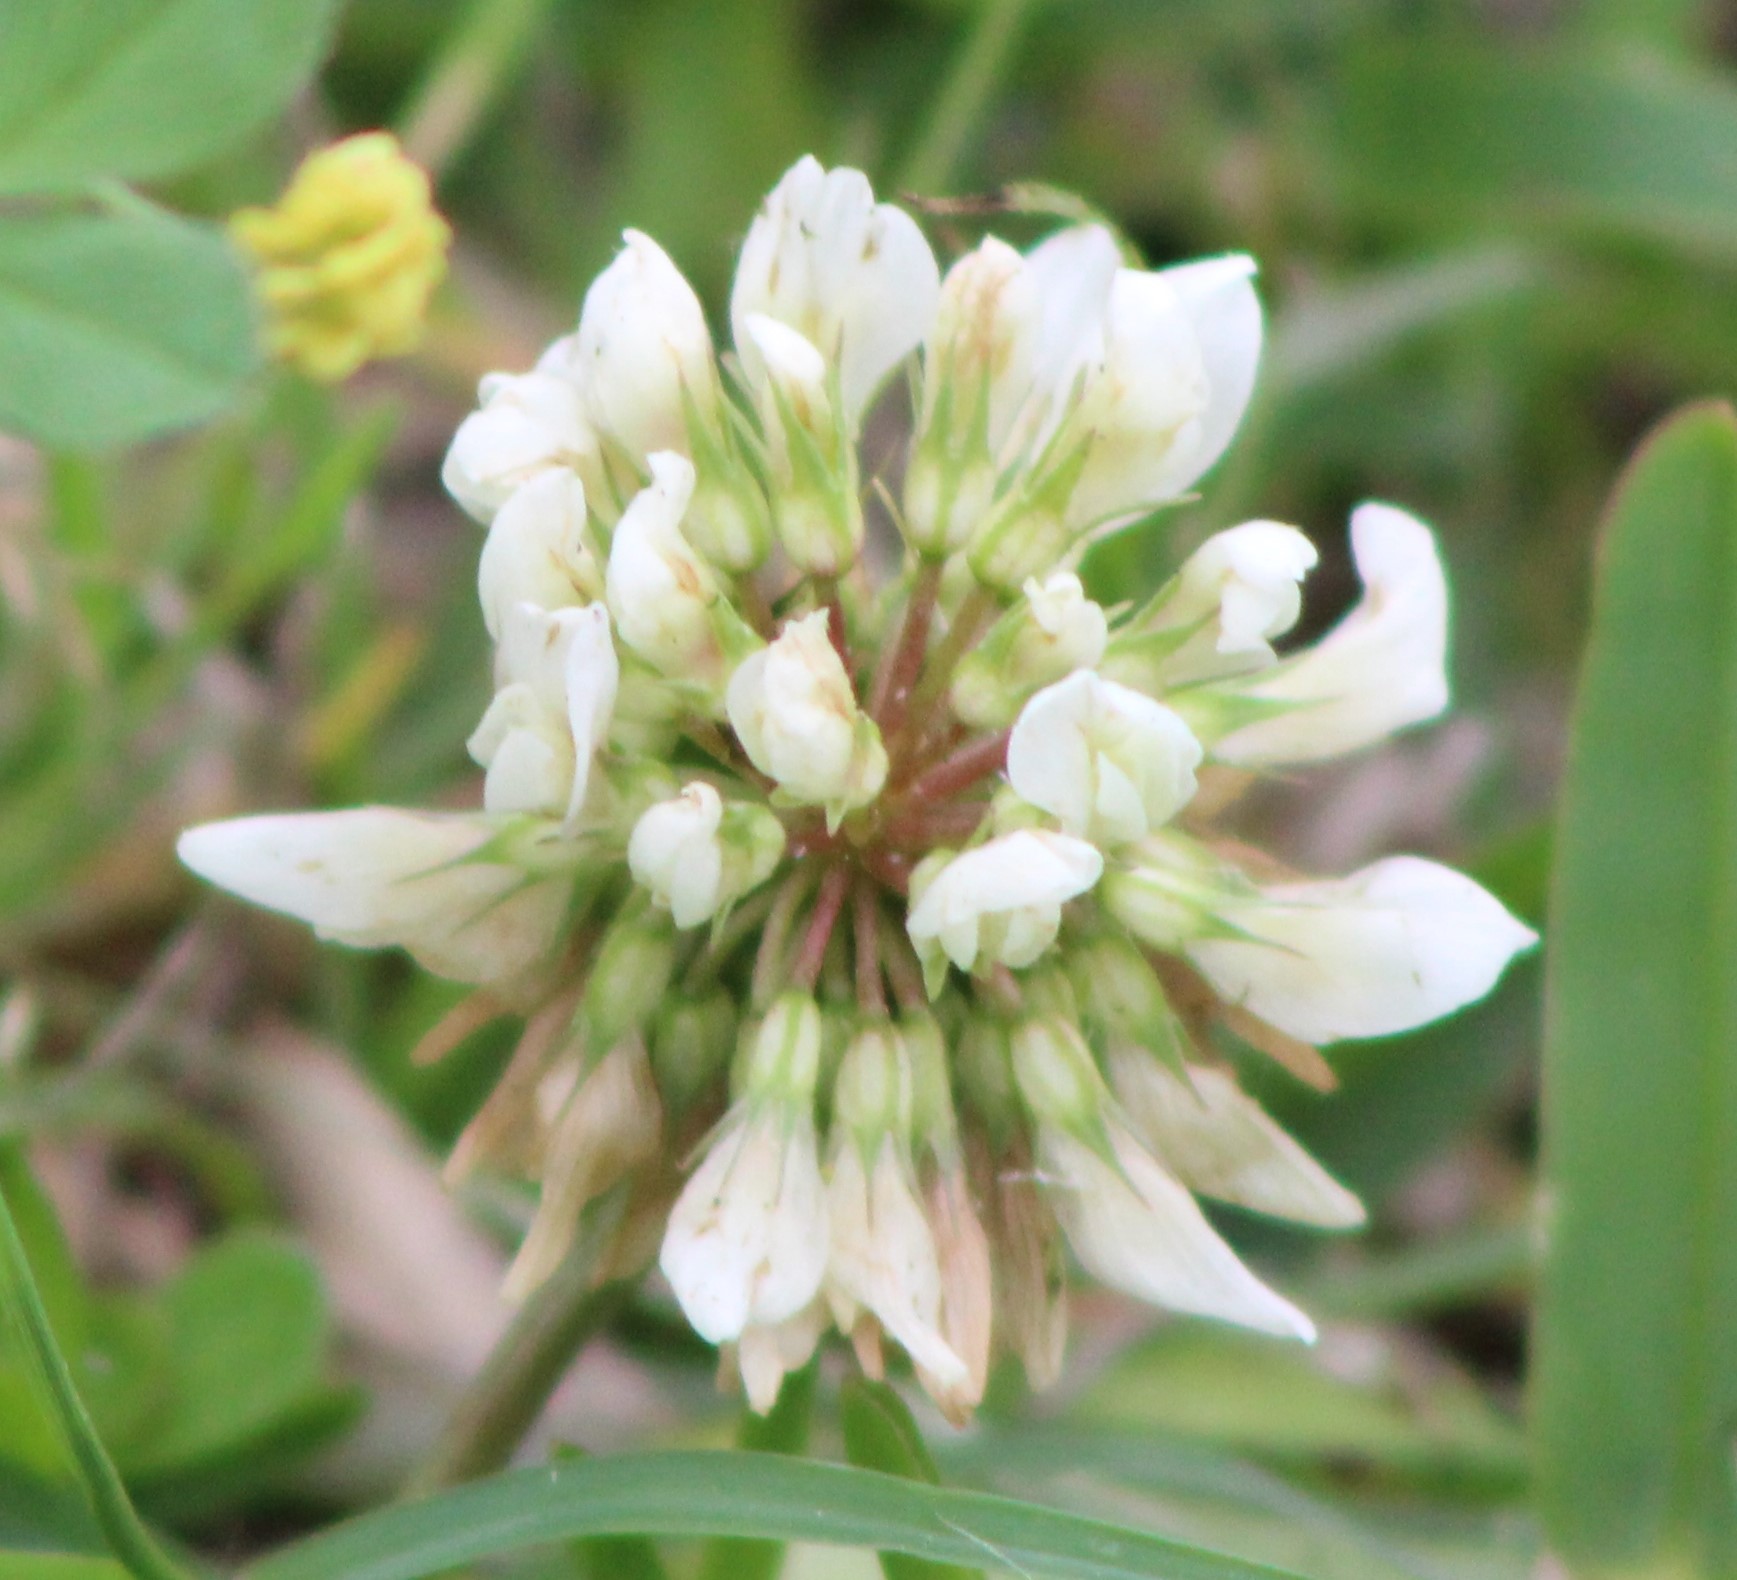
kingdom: Plantae
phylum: Tracheophyta
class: Magnoliopsida
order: Fabales
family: Fabaceae
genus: Trifolium
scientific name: Trifolium repens
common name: White clover
